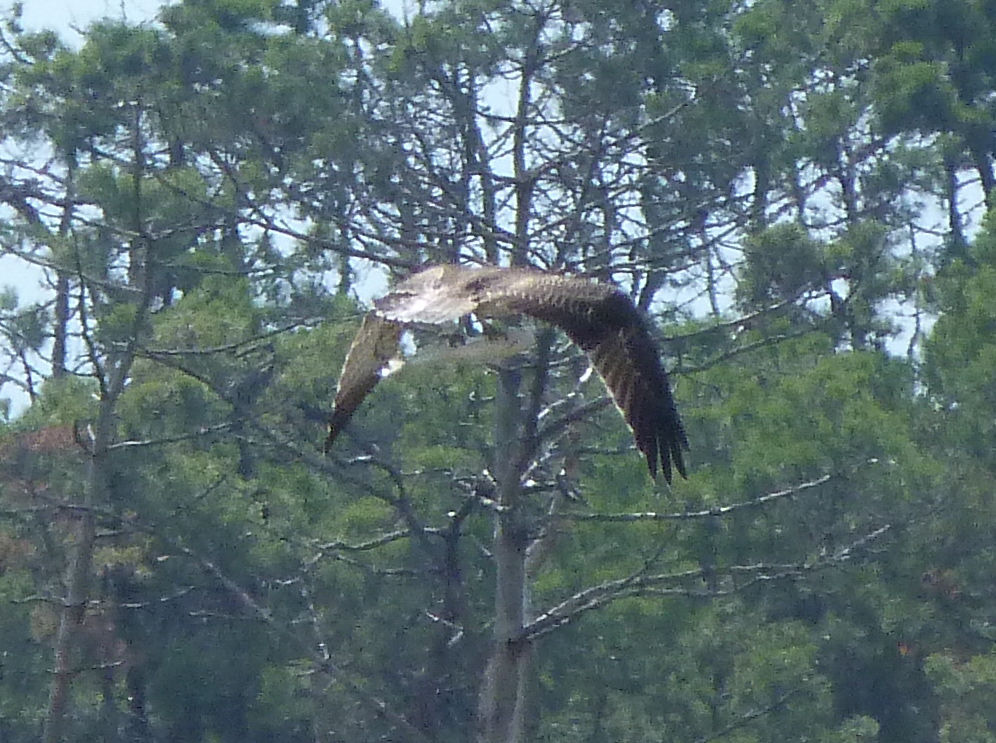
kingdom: Animalia
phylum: Chordata
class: Aves
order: Accipitriformes
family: Pandionidae
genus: Pandion
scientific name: Pandion haliaetus
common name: Osprey
